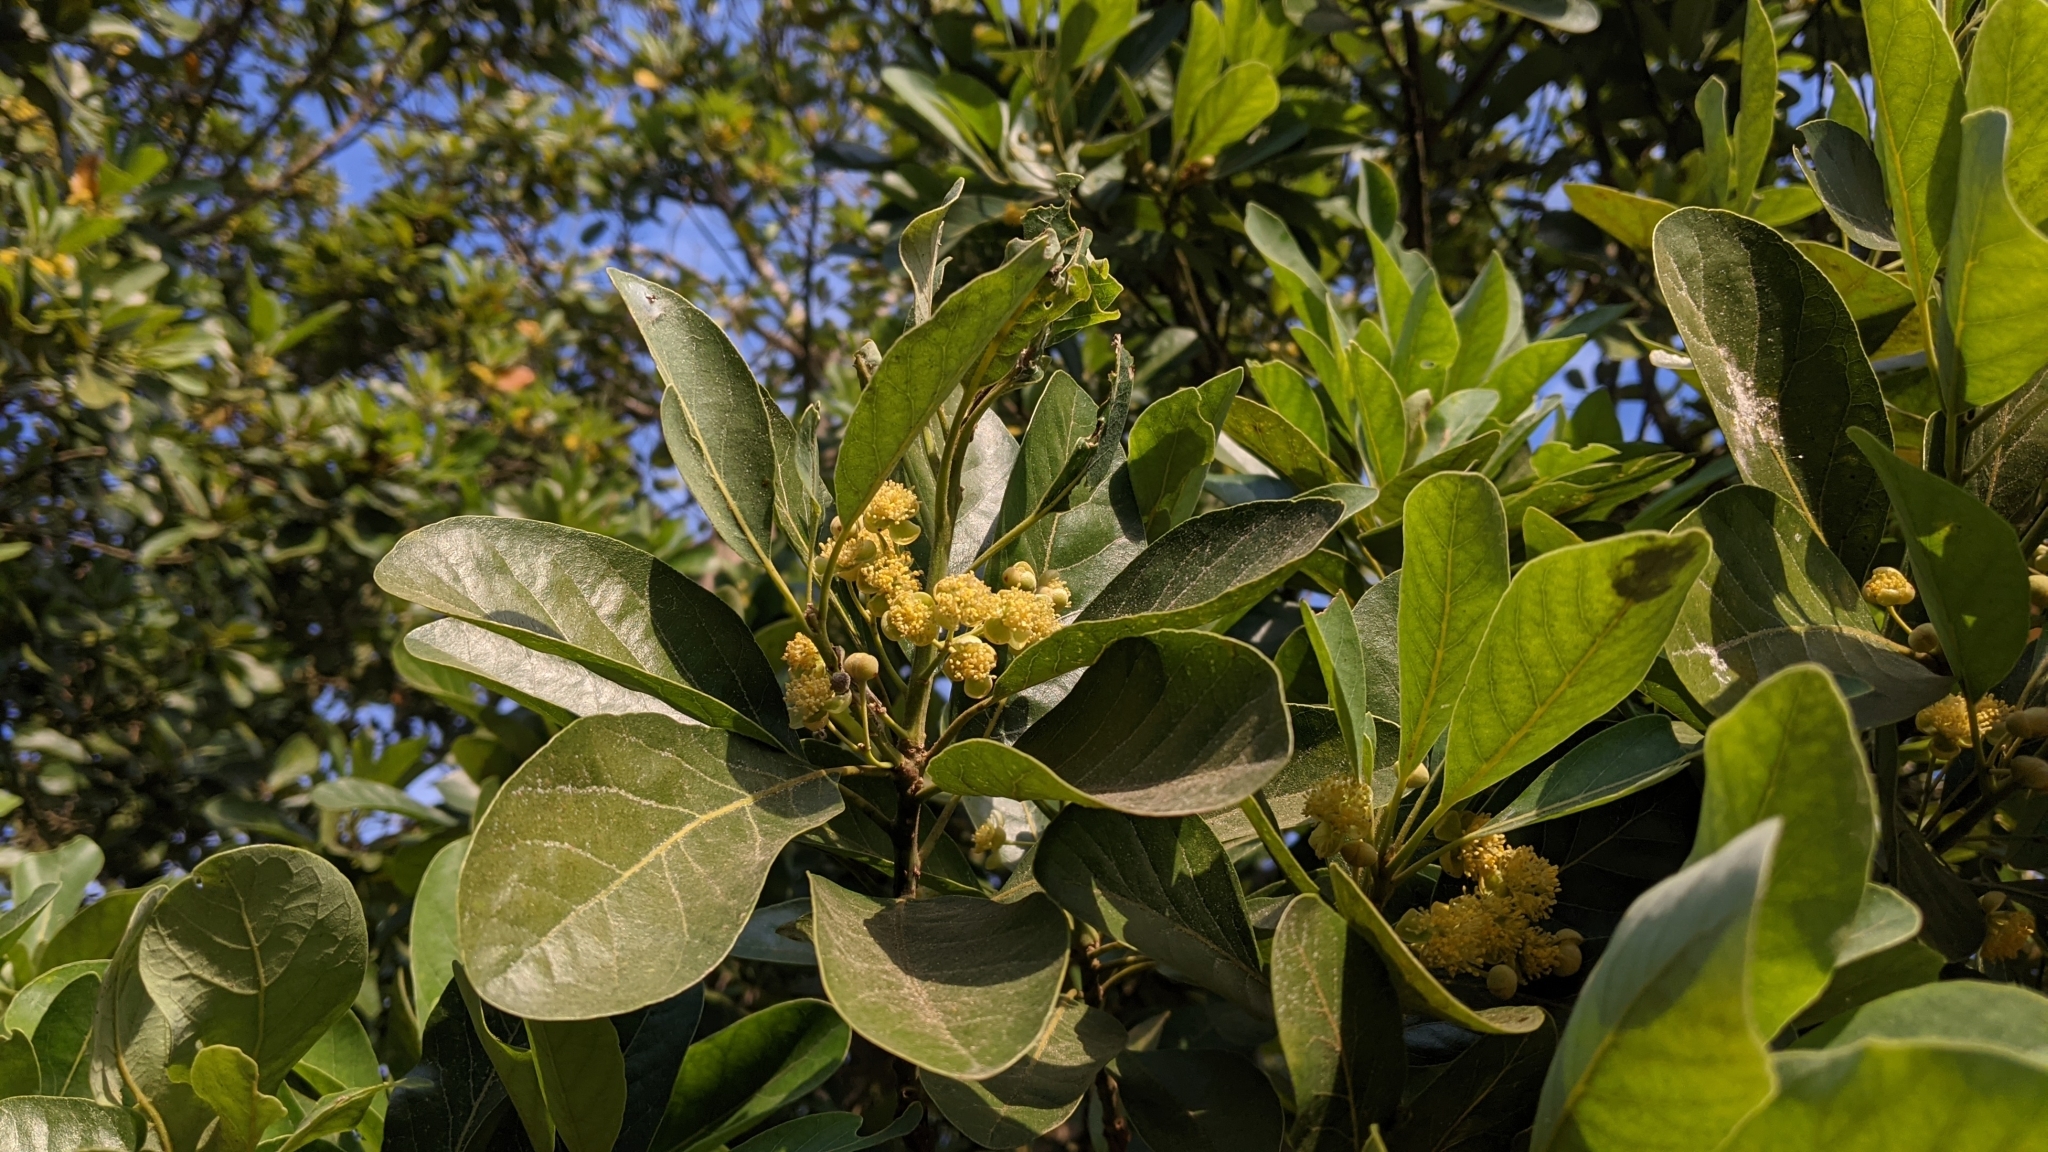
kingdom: Plantae
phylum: Tracheophyta
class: Magnoliopsida
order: Laurales
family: Lauraceae
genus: Litsea
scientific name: Litsea glutinosa
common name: Indian-laurel
